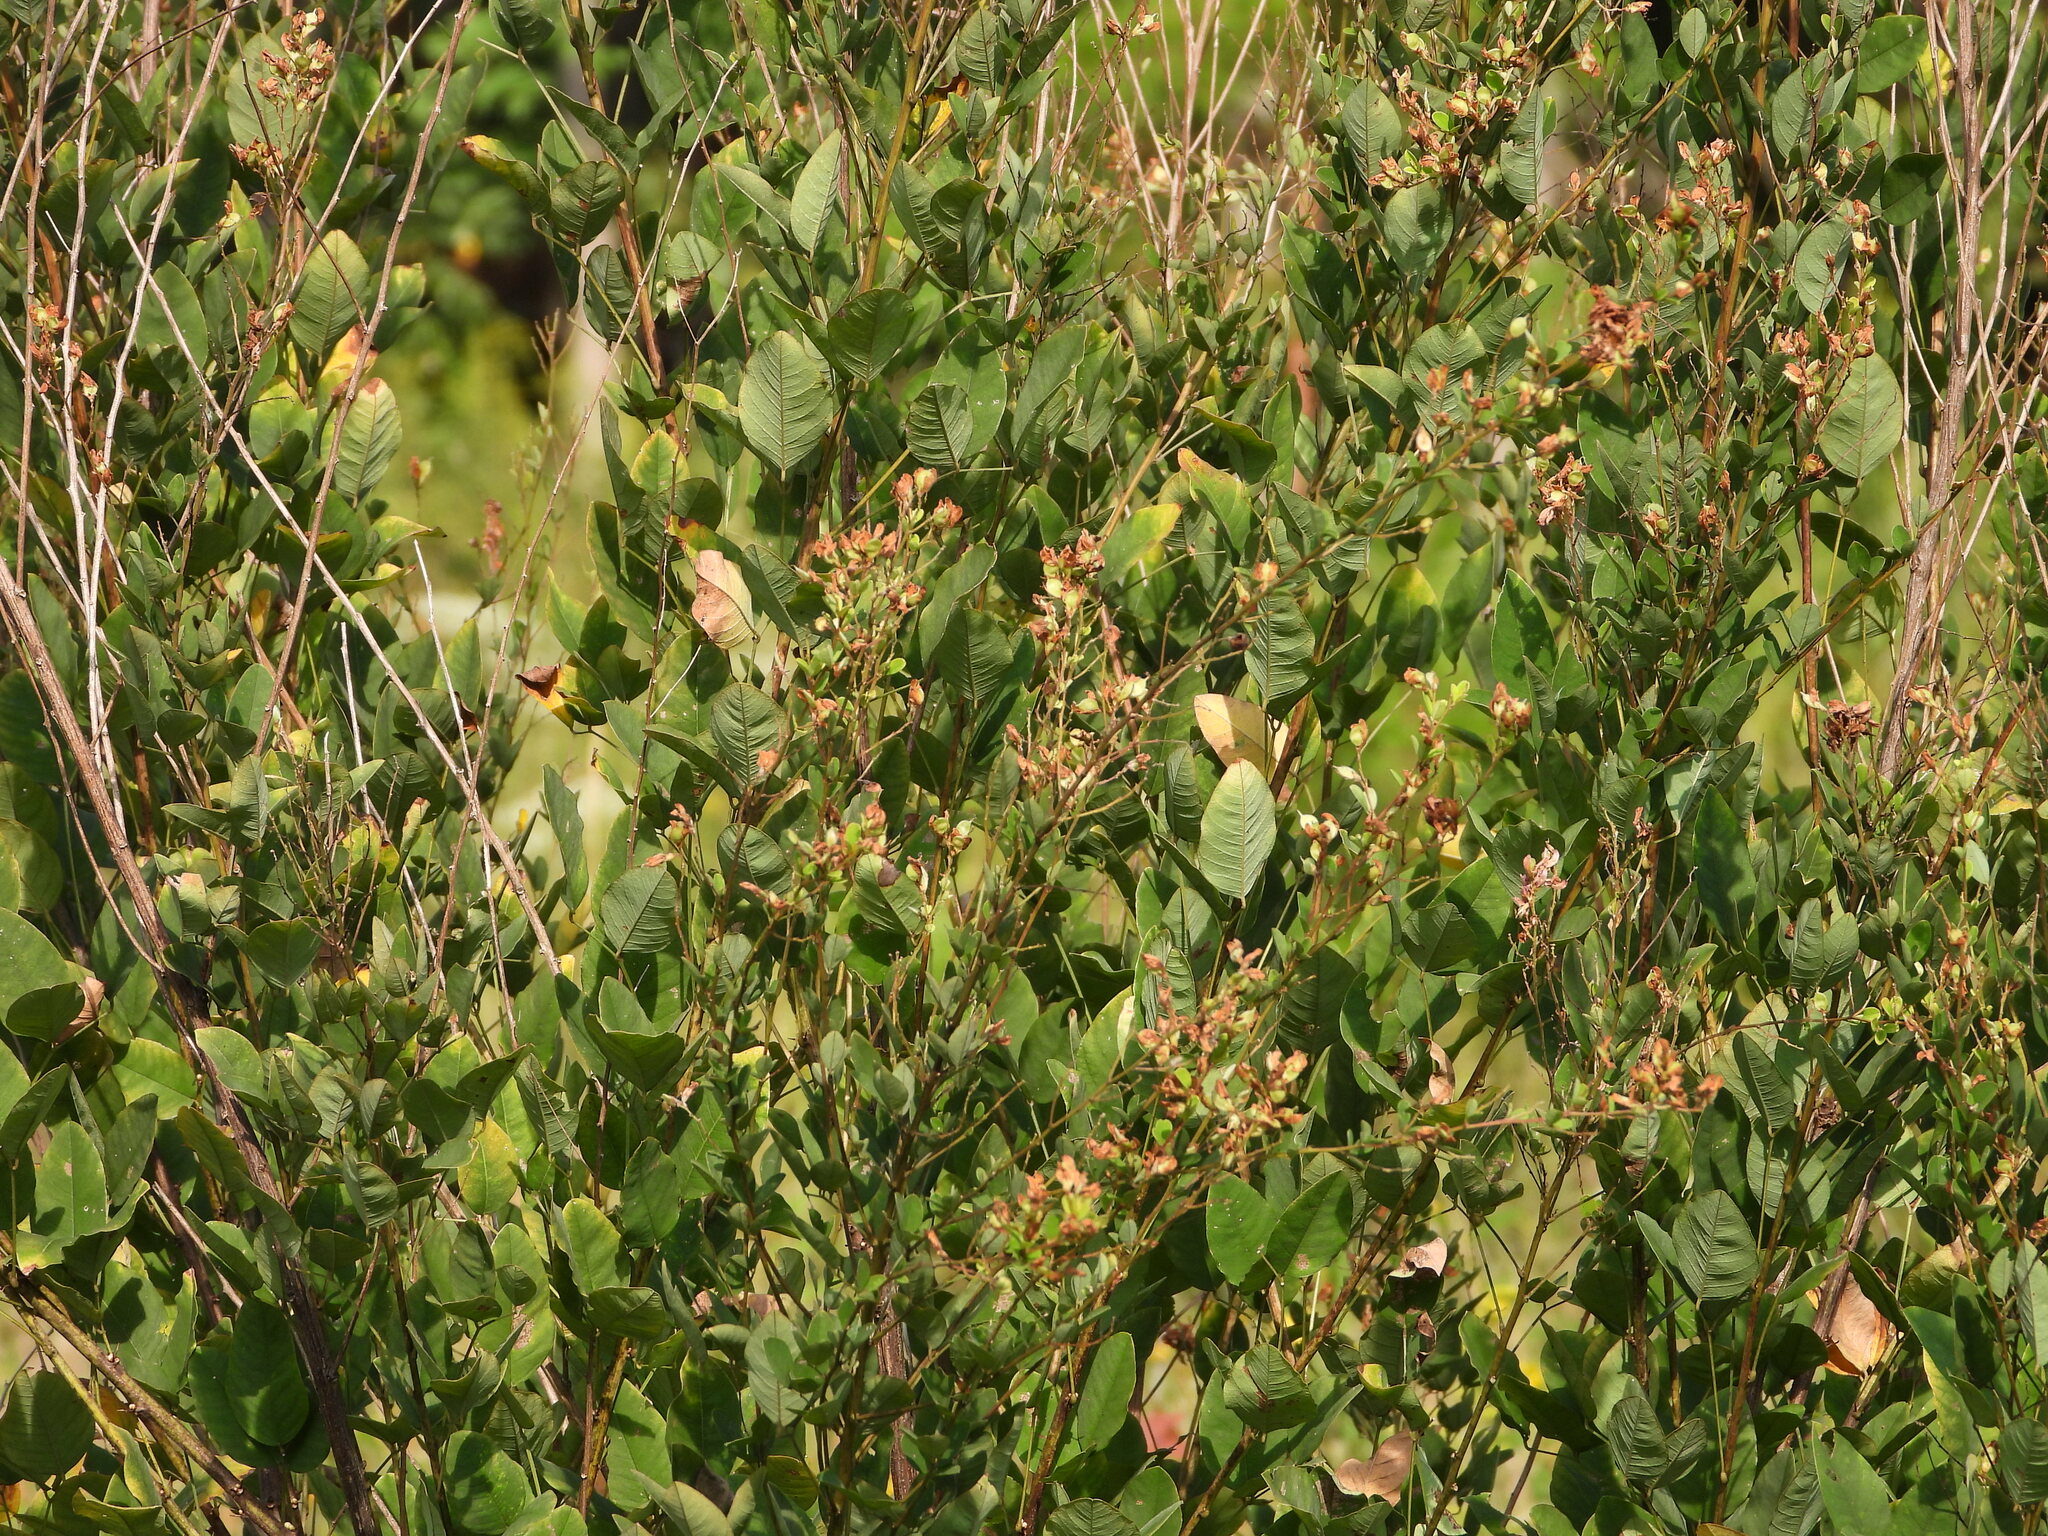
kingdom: Plantae
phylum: Tracheophyta
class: Magnoliopsida
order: Fabales
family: Fabaceae
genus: Lespedeza
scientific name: Lespedeza bicolor
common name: Shrub lespedeza
